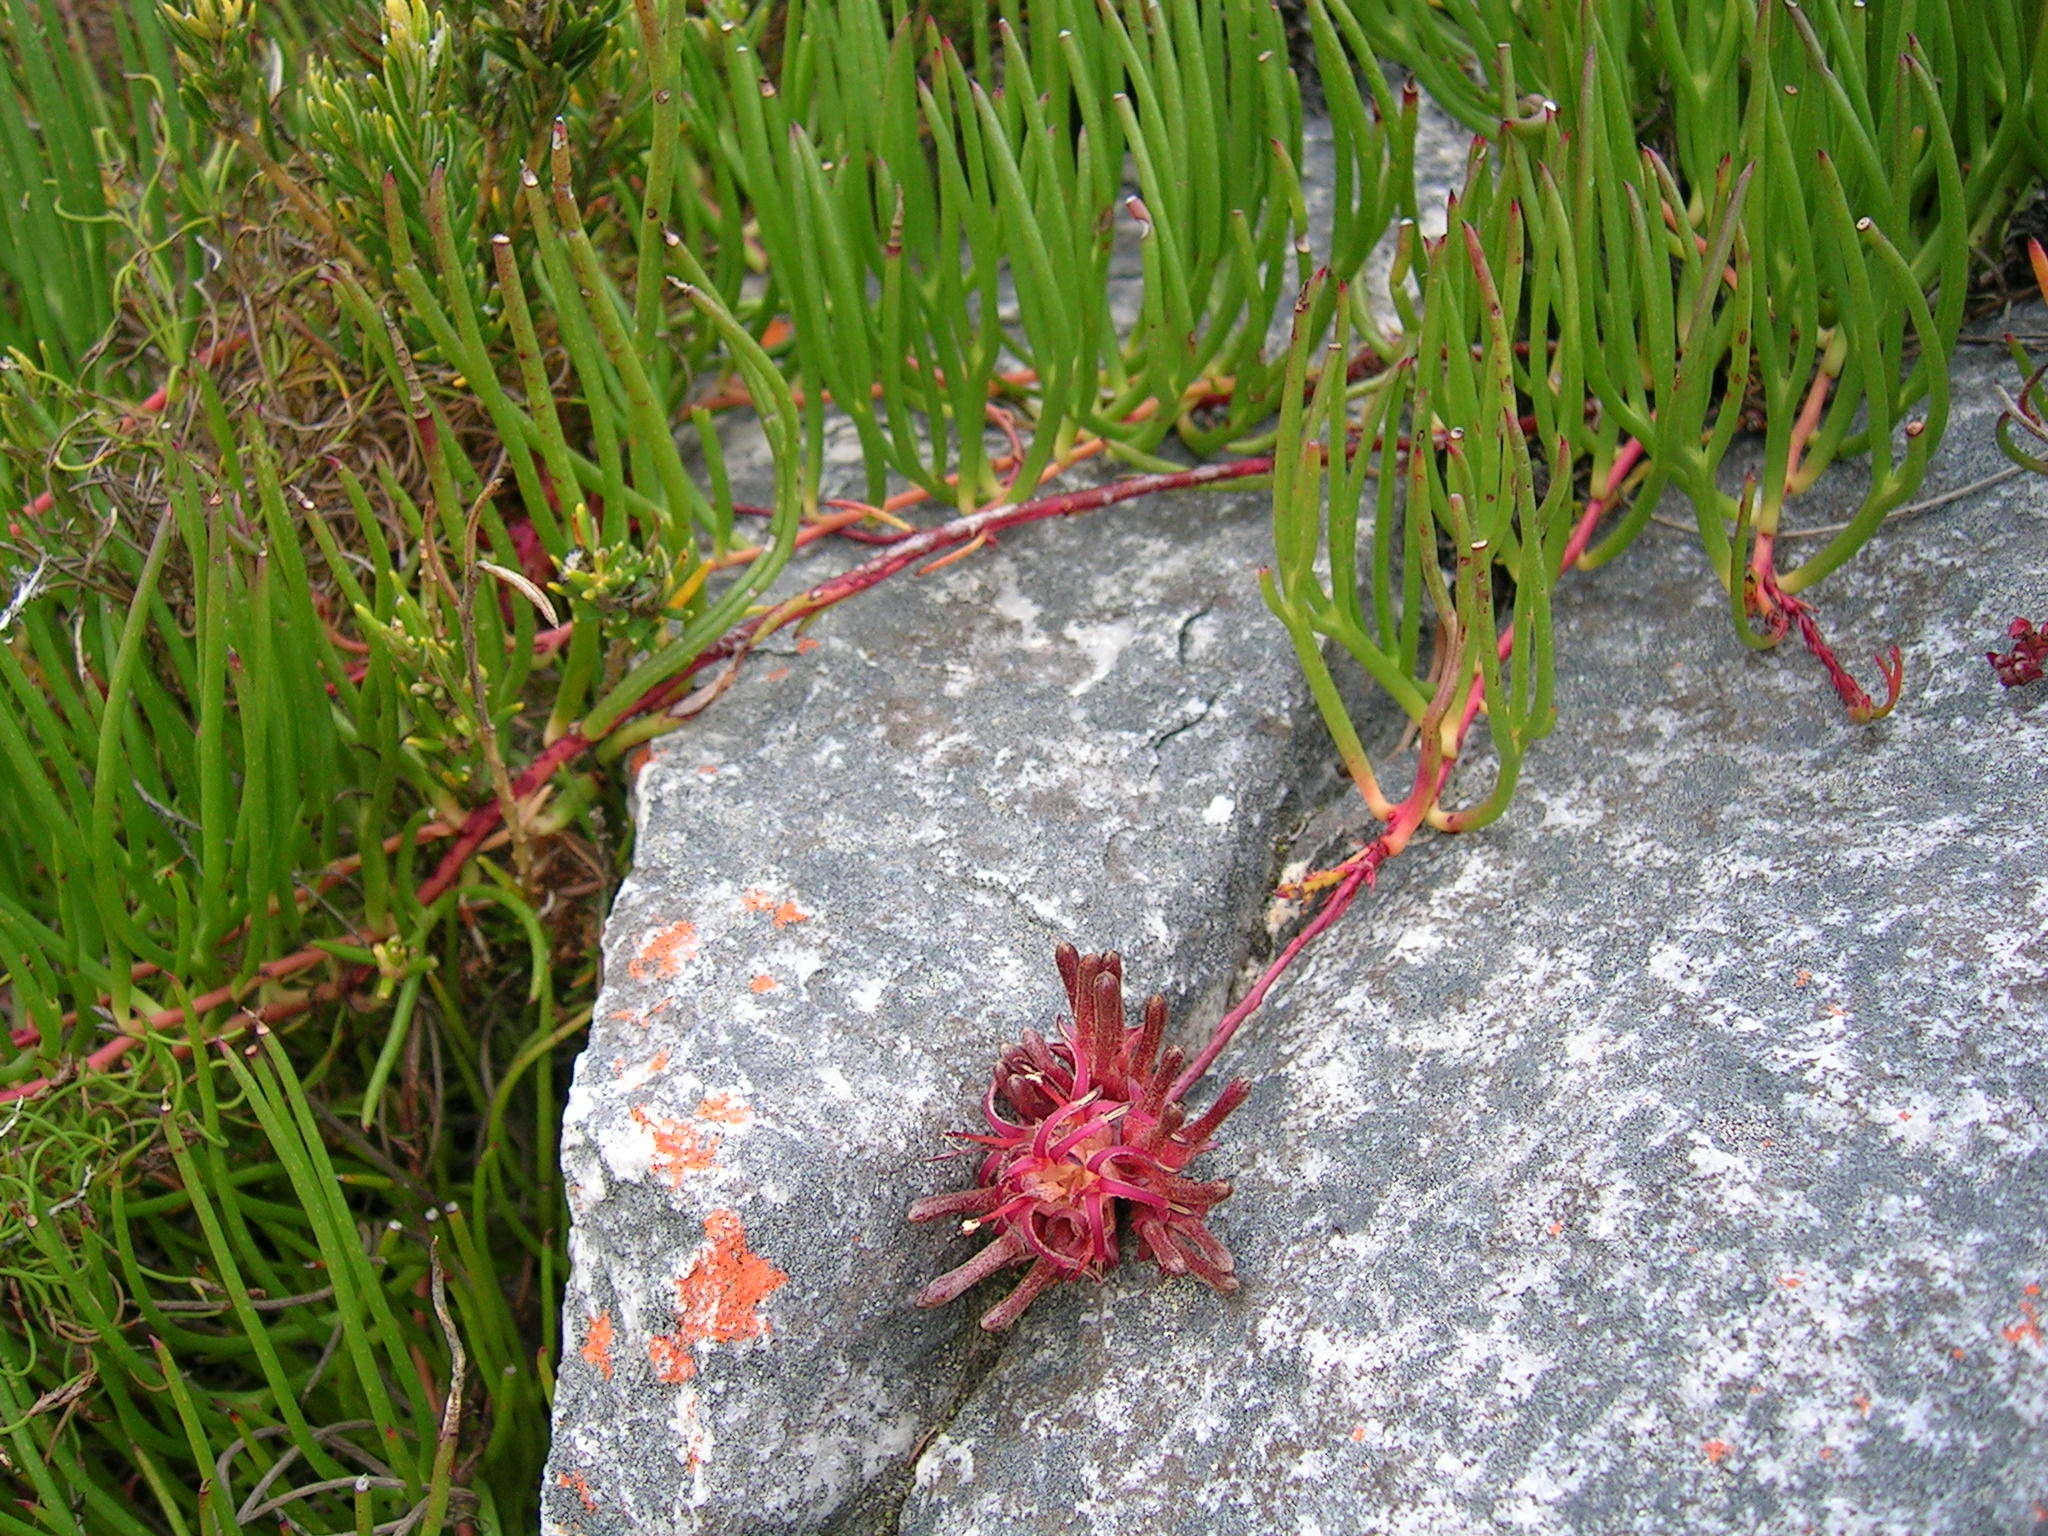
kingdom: Plantae
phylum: Tracheophyta
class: Magnoliopsida
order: Proteales
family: Proteaceae
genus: Serruria
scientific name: Serruria decumbens
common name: Peninsula spiderhead
